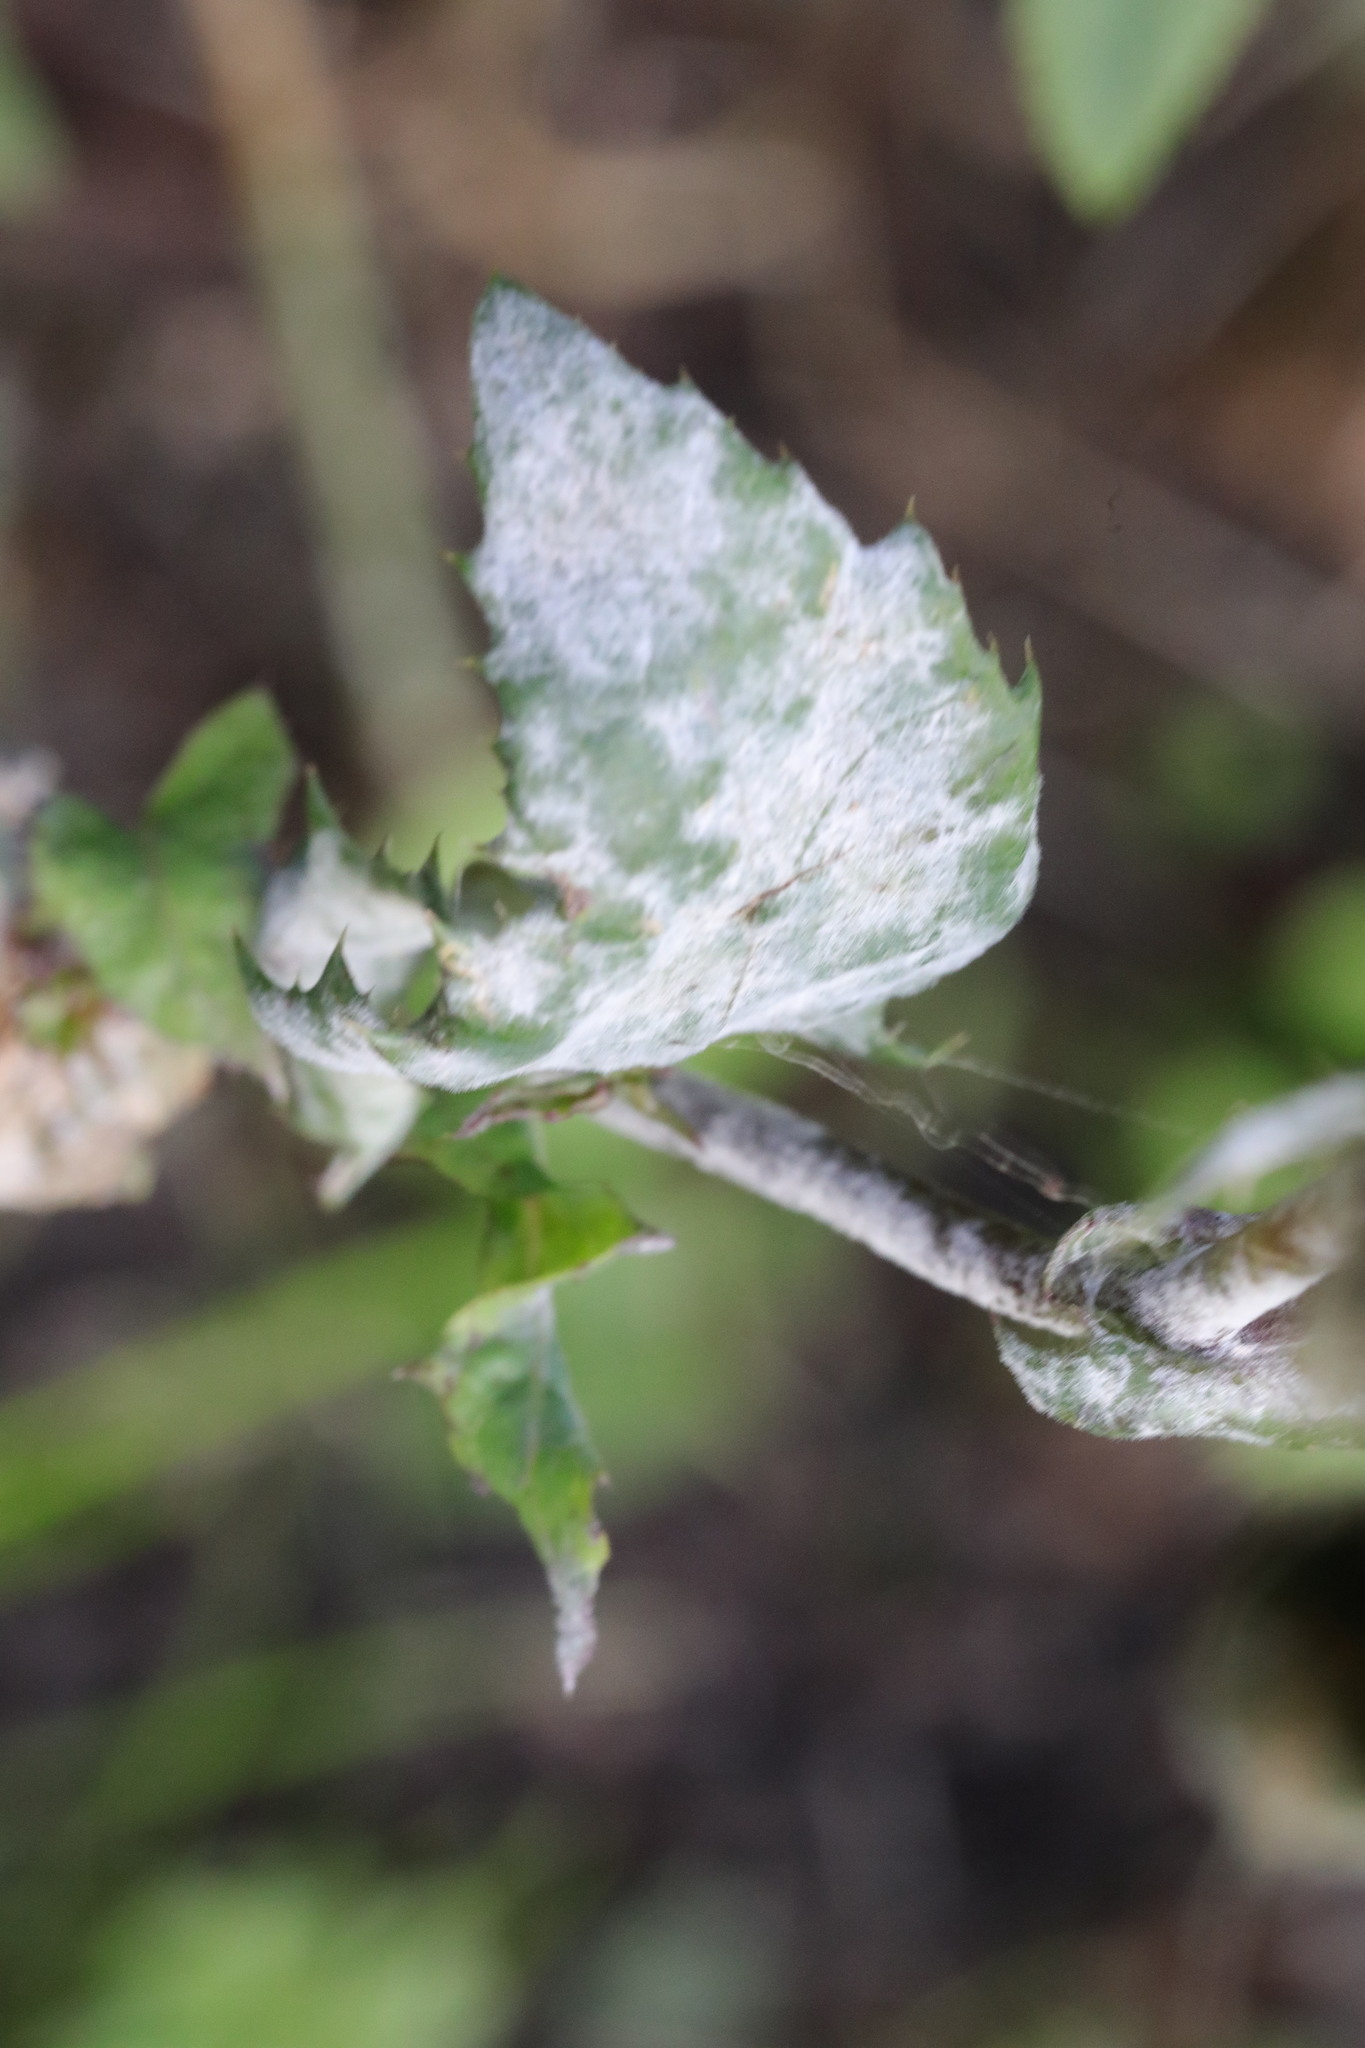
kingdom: Fungi
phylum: Ascomycota
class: Leotiomycetes
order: Helotiales
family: Erysiphaceae
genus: Golovinomyces
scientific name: Golovinomyces sonchicola
